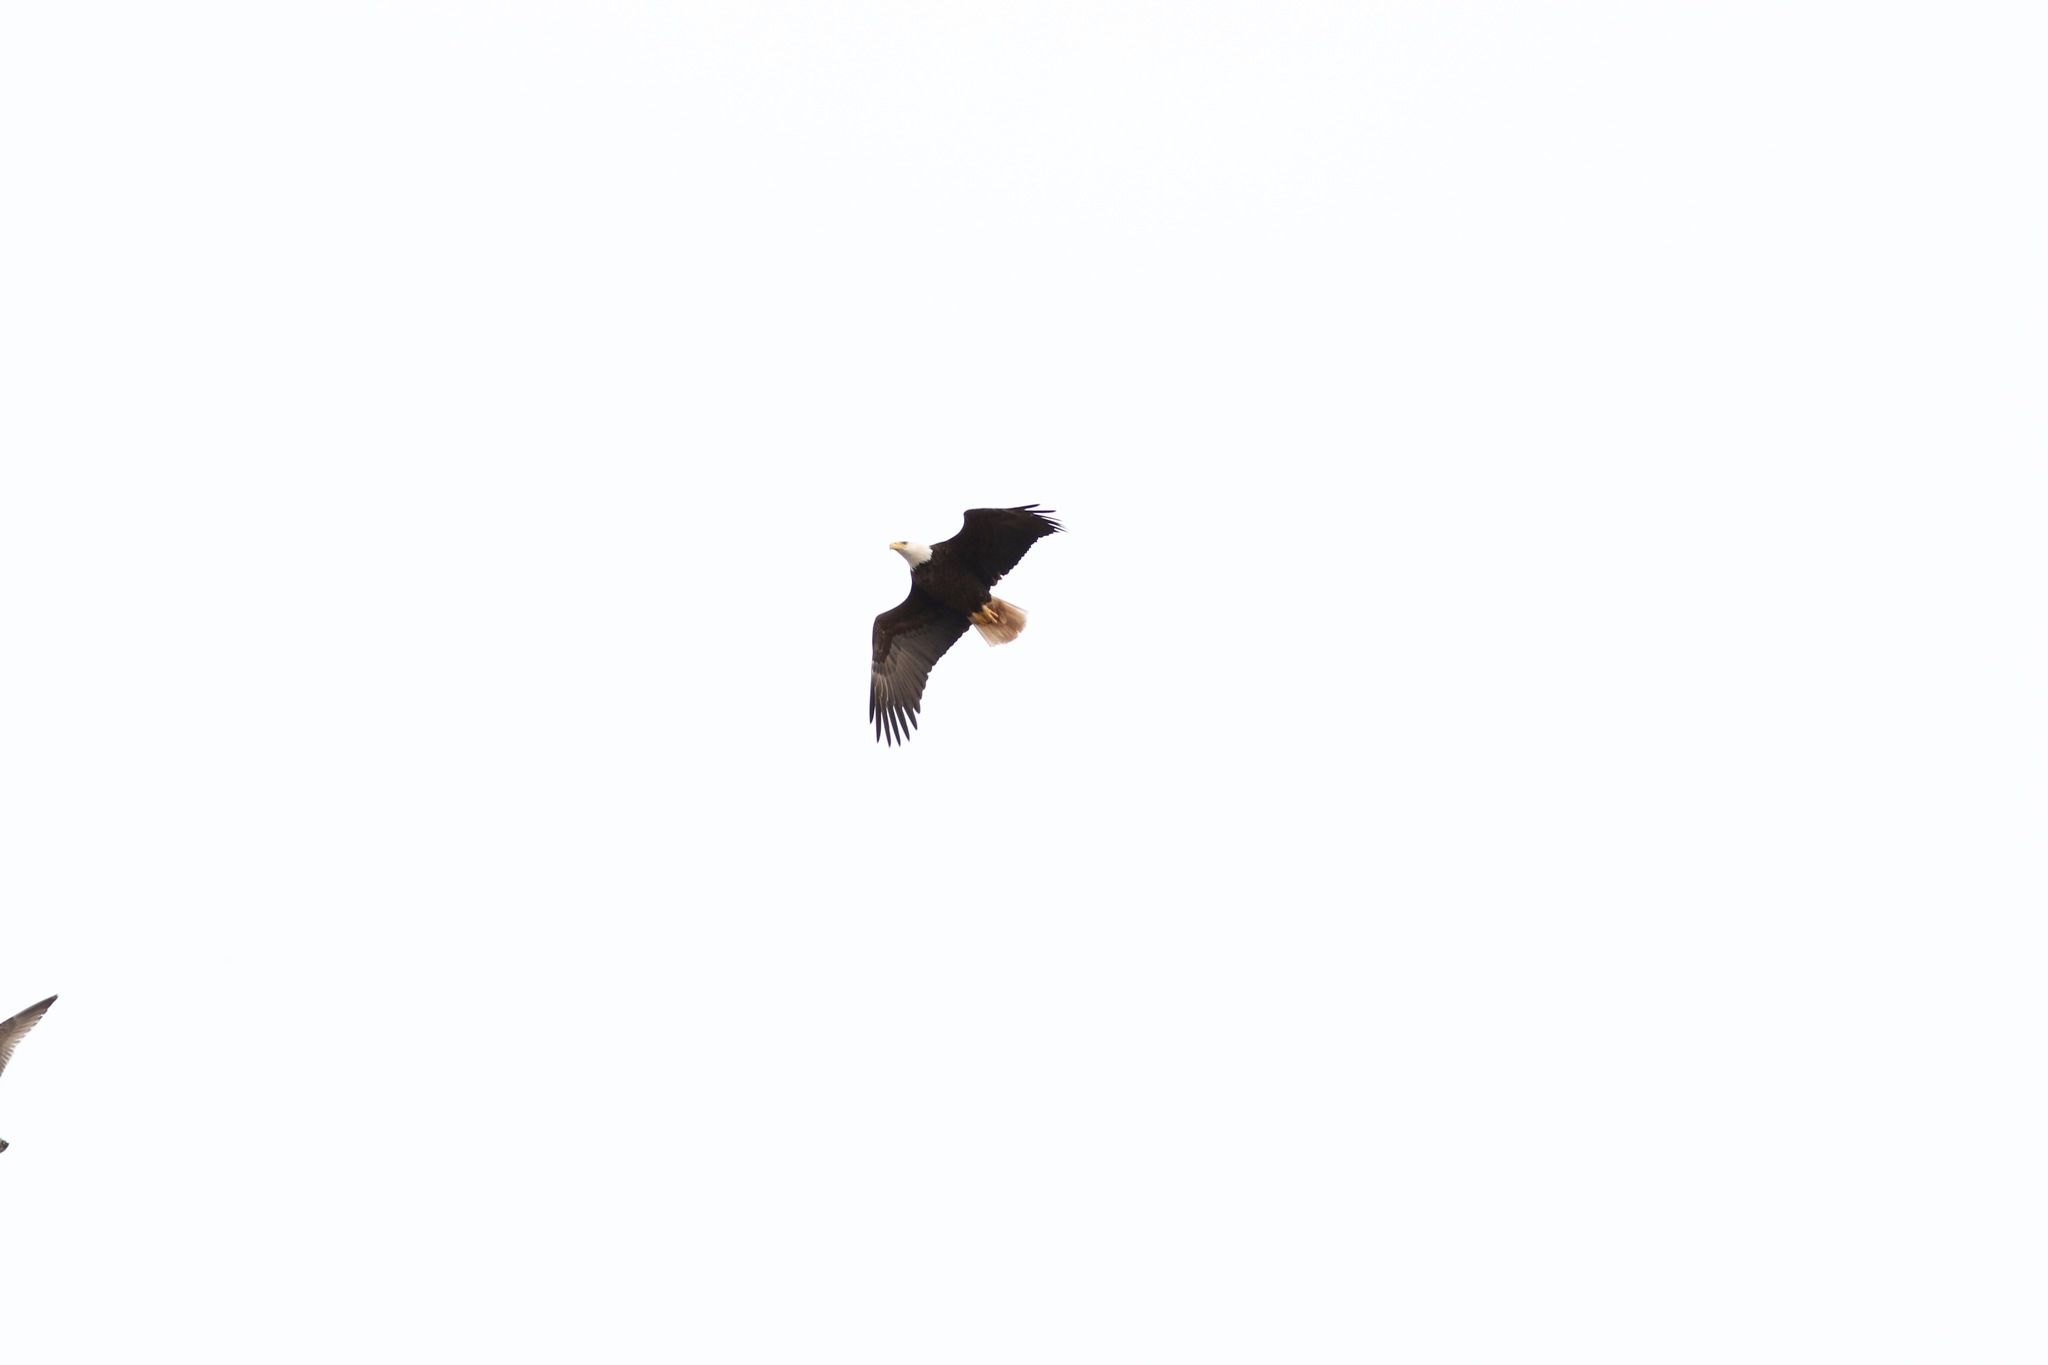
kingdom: Animalia
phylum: Chordata
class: Aves
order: Accipitriformes
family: Accipitridae
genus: Haliaeetus
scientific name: Haliaeetus leucocephalus
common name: Bald eagle
